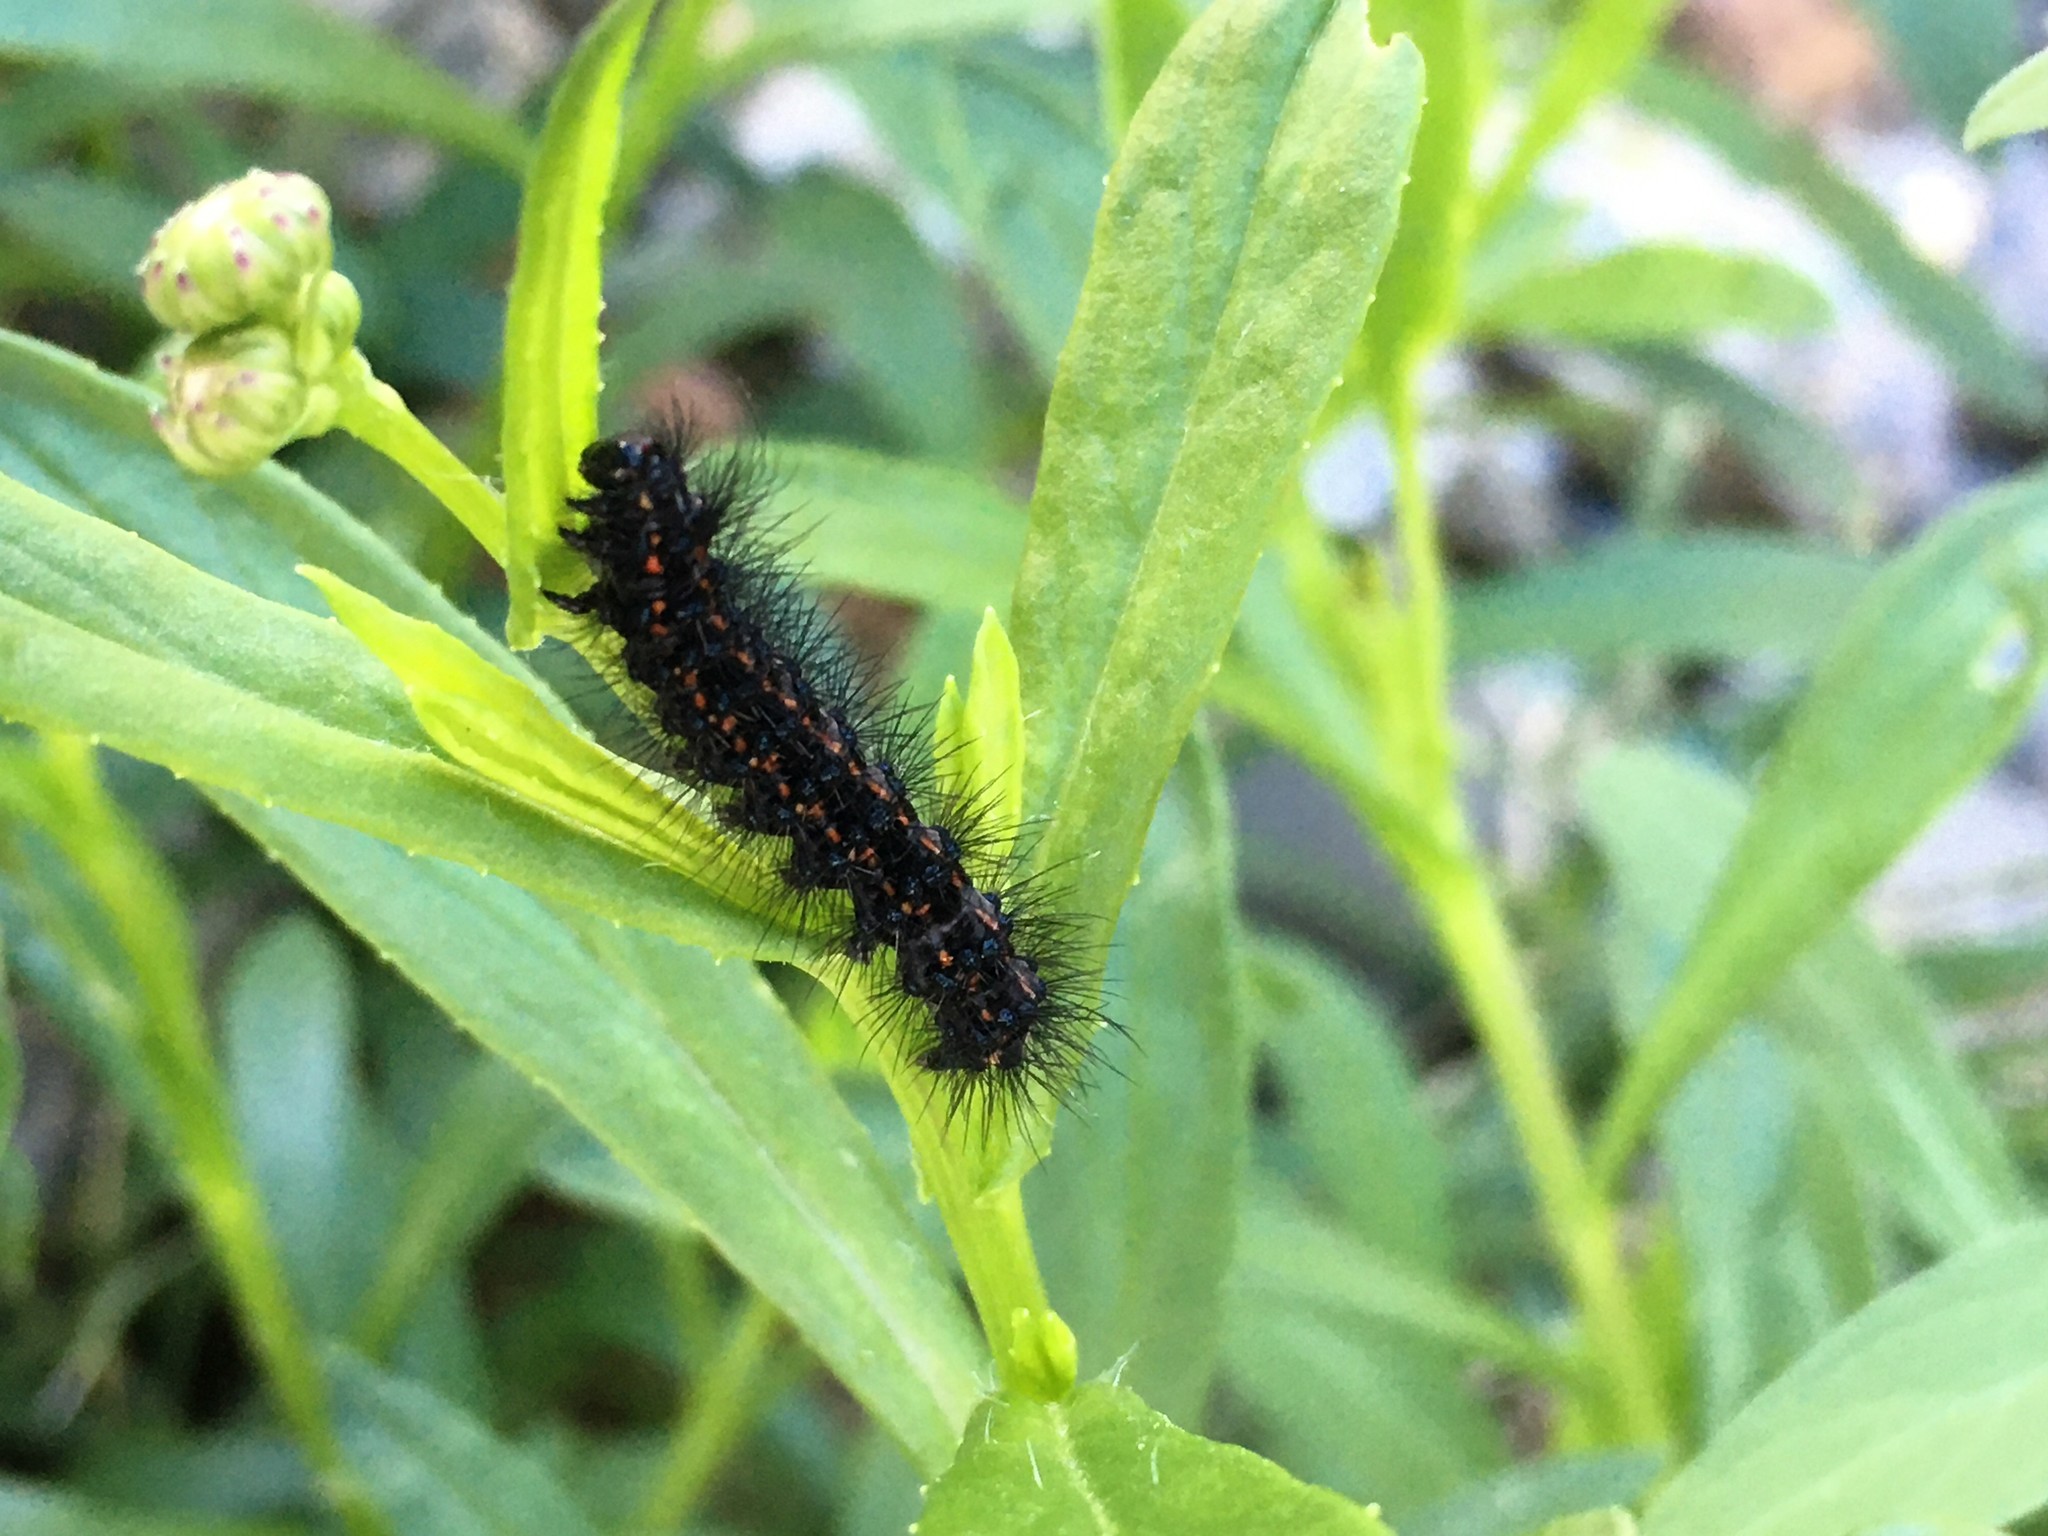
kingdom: Animalia
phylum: Arthropoda
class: Insecta
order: Lepidoptera
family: Erebidae
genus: Nyctemera
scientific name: Nyctemera annulatum
